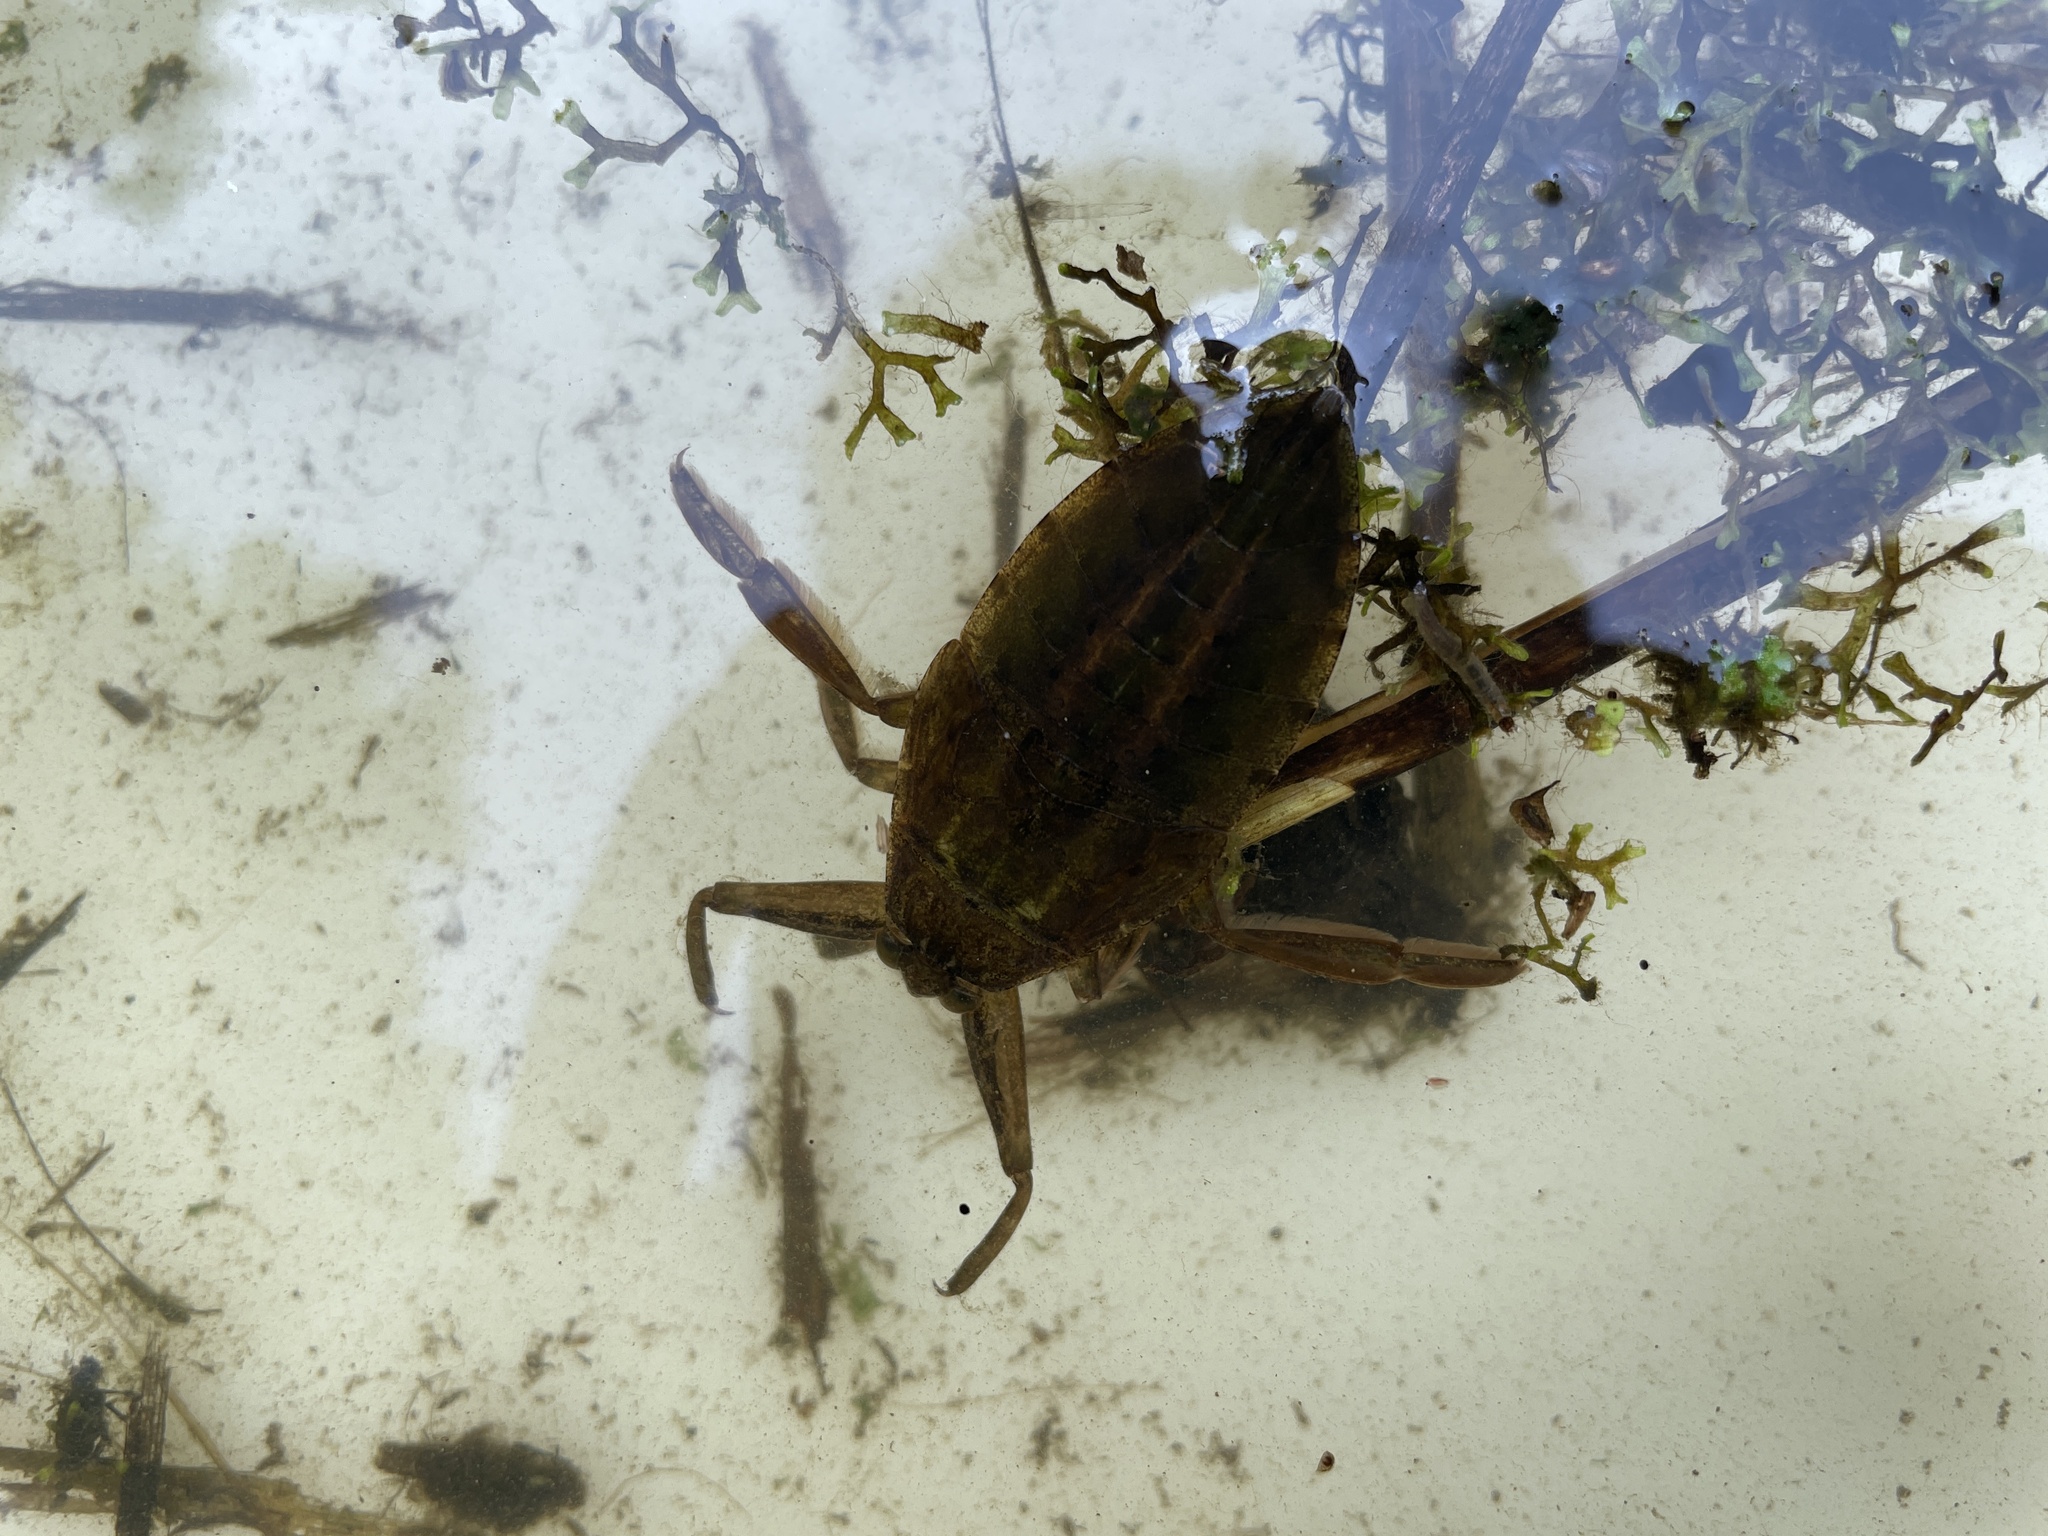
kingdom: Animalia
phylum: Arthropoda
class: Insecta
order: Hemiptera
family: Belostomatidae
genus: Lethocerus
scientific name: Lethocerus americanus
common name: Giant water bug
